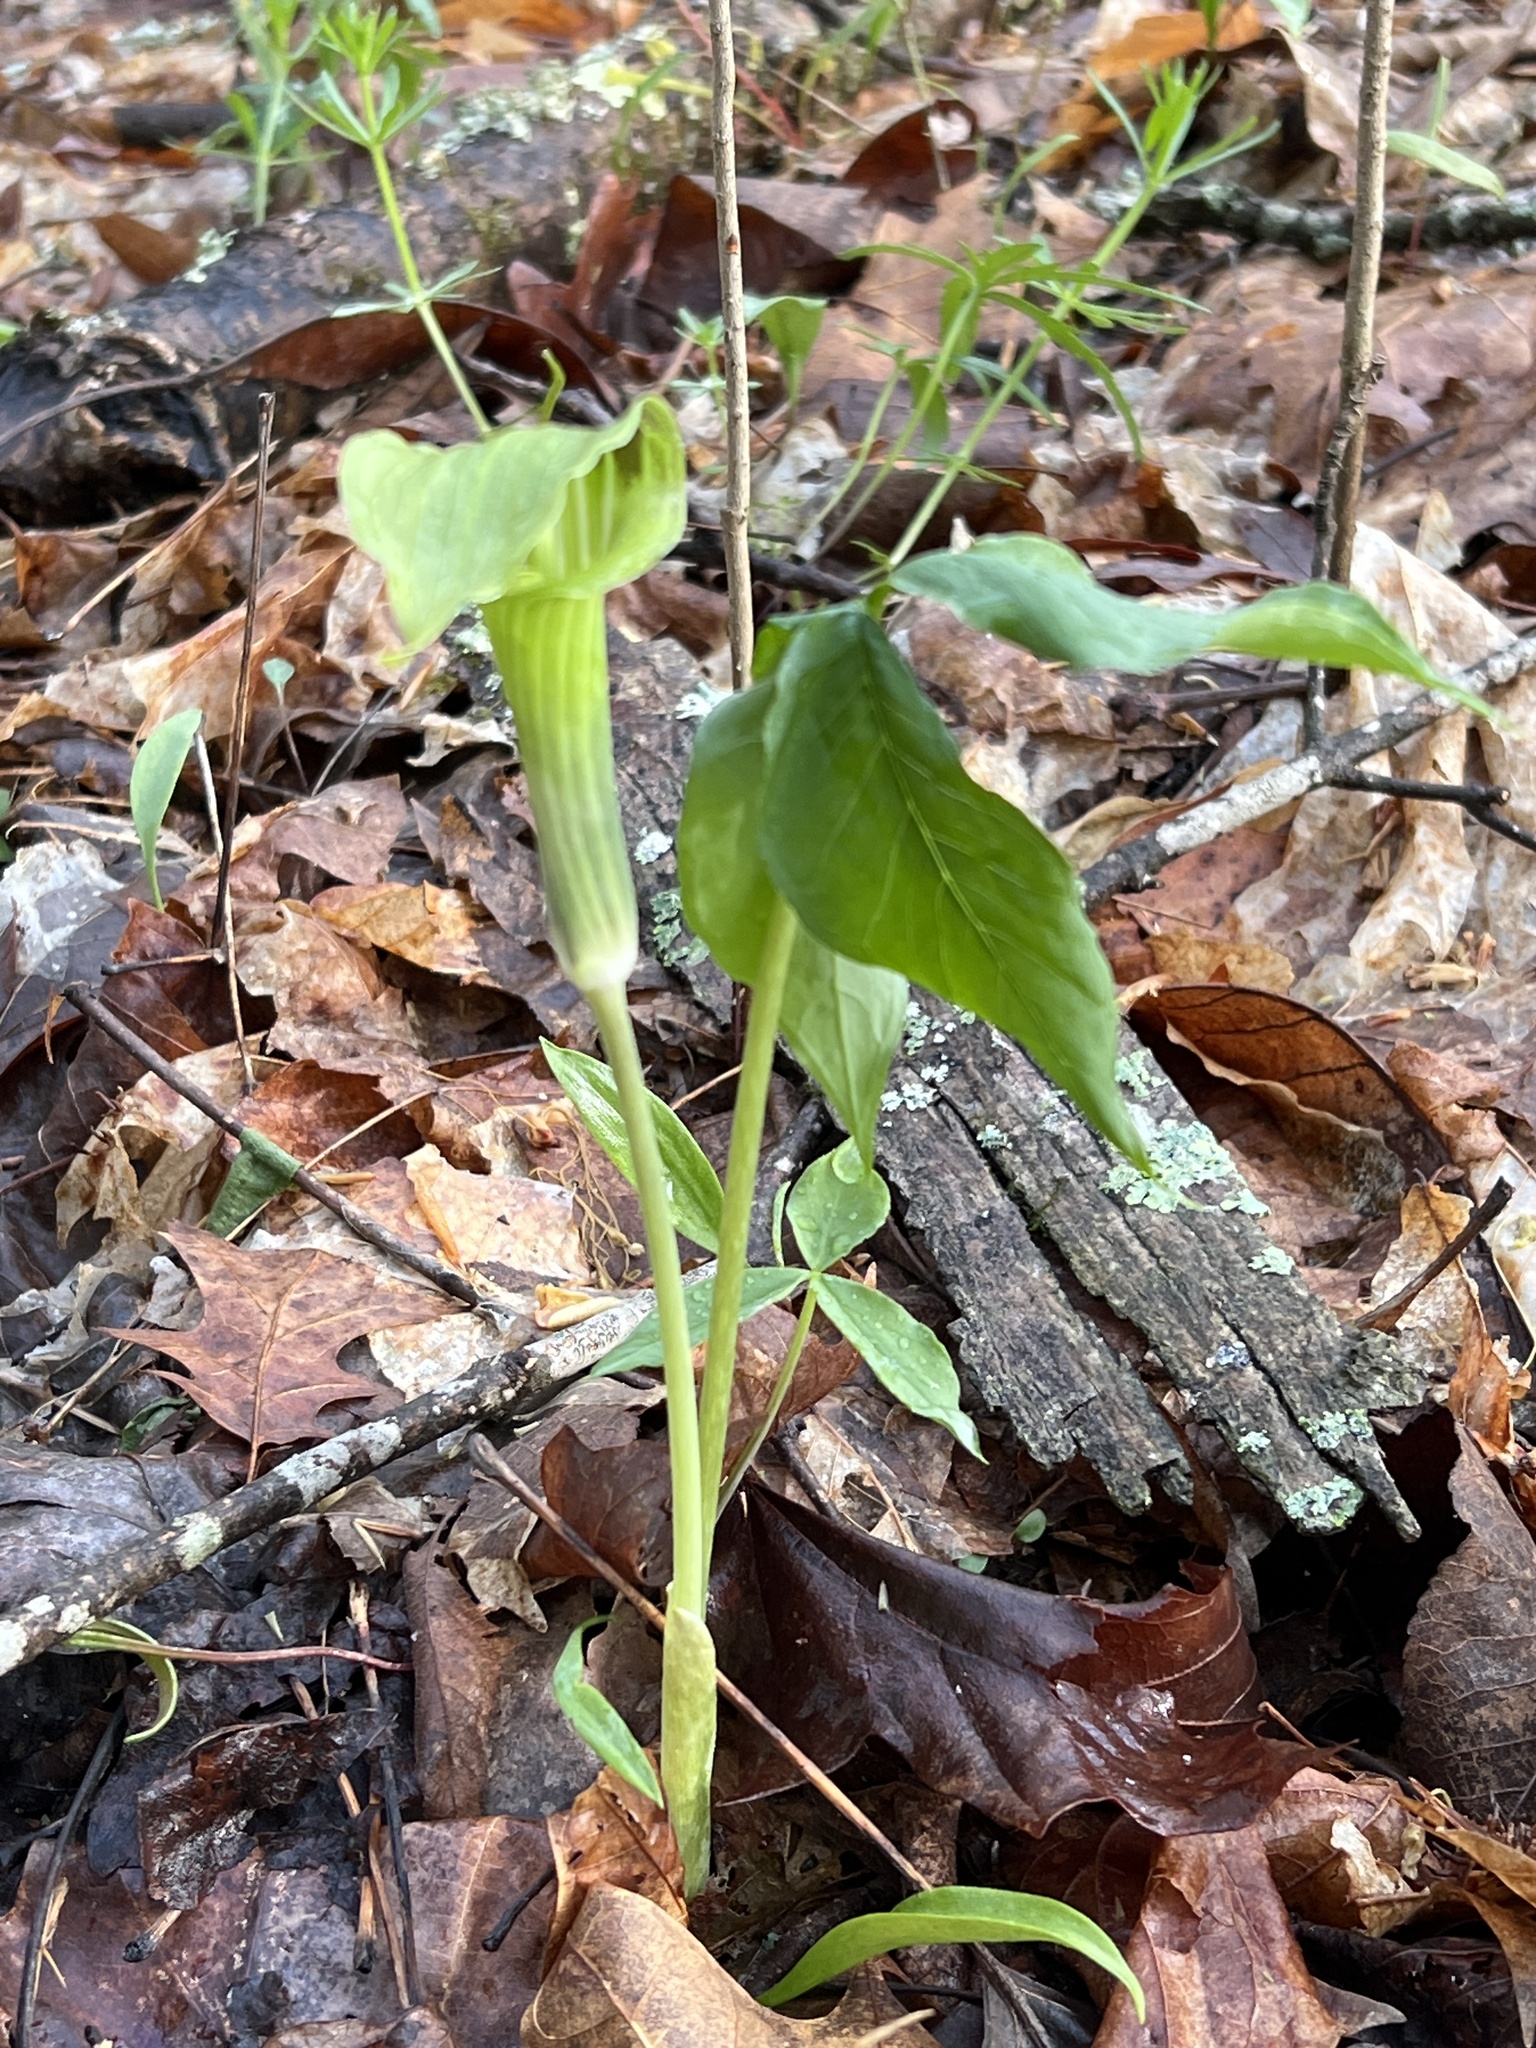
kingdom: Plantae
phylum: Tracheophyta
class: Liliopsida
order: Alismatales
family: Araceae
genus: Arisaema
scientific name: Arisaema triphyllum
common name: Jack-in-the-pulpit
